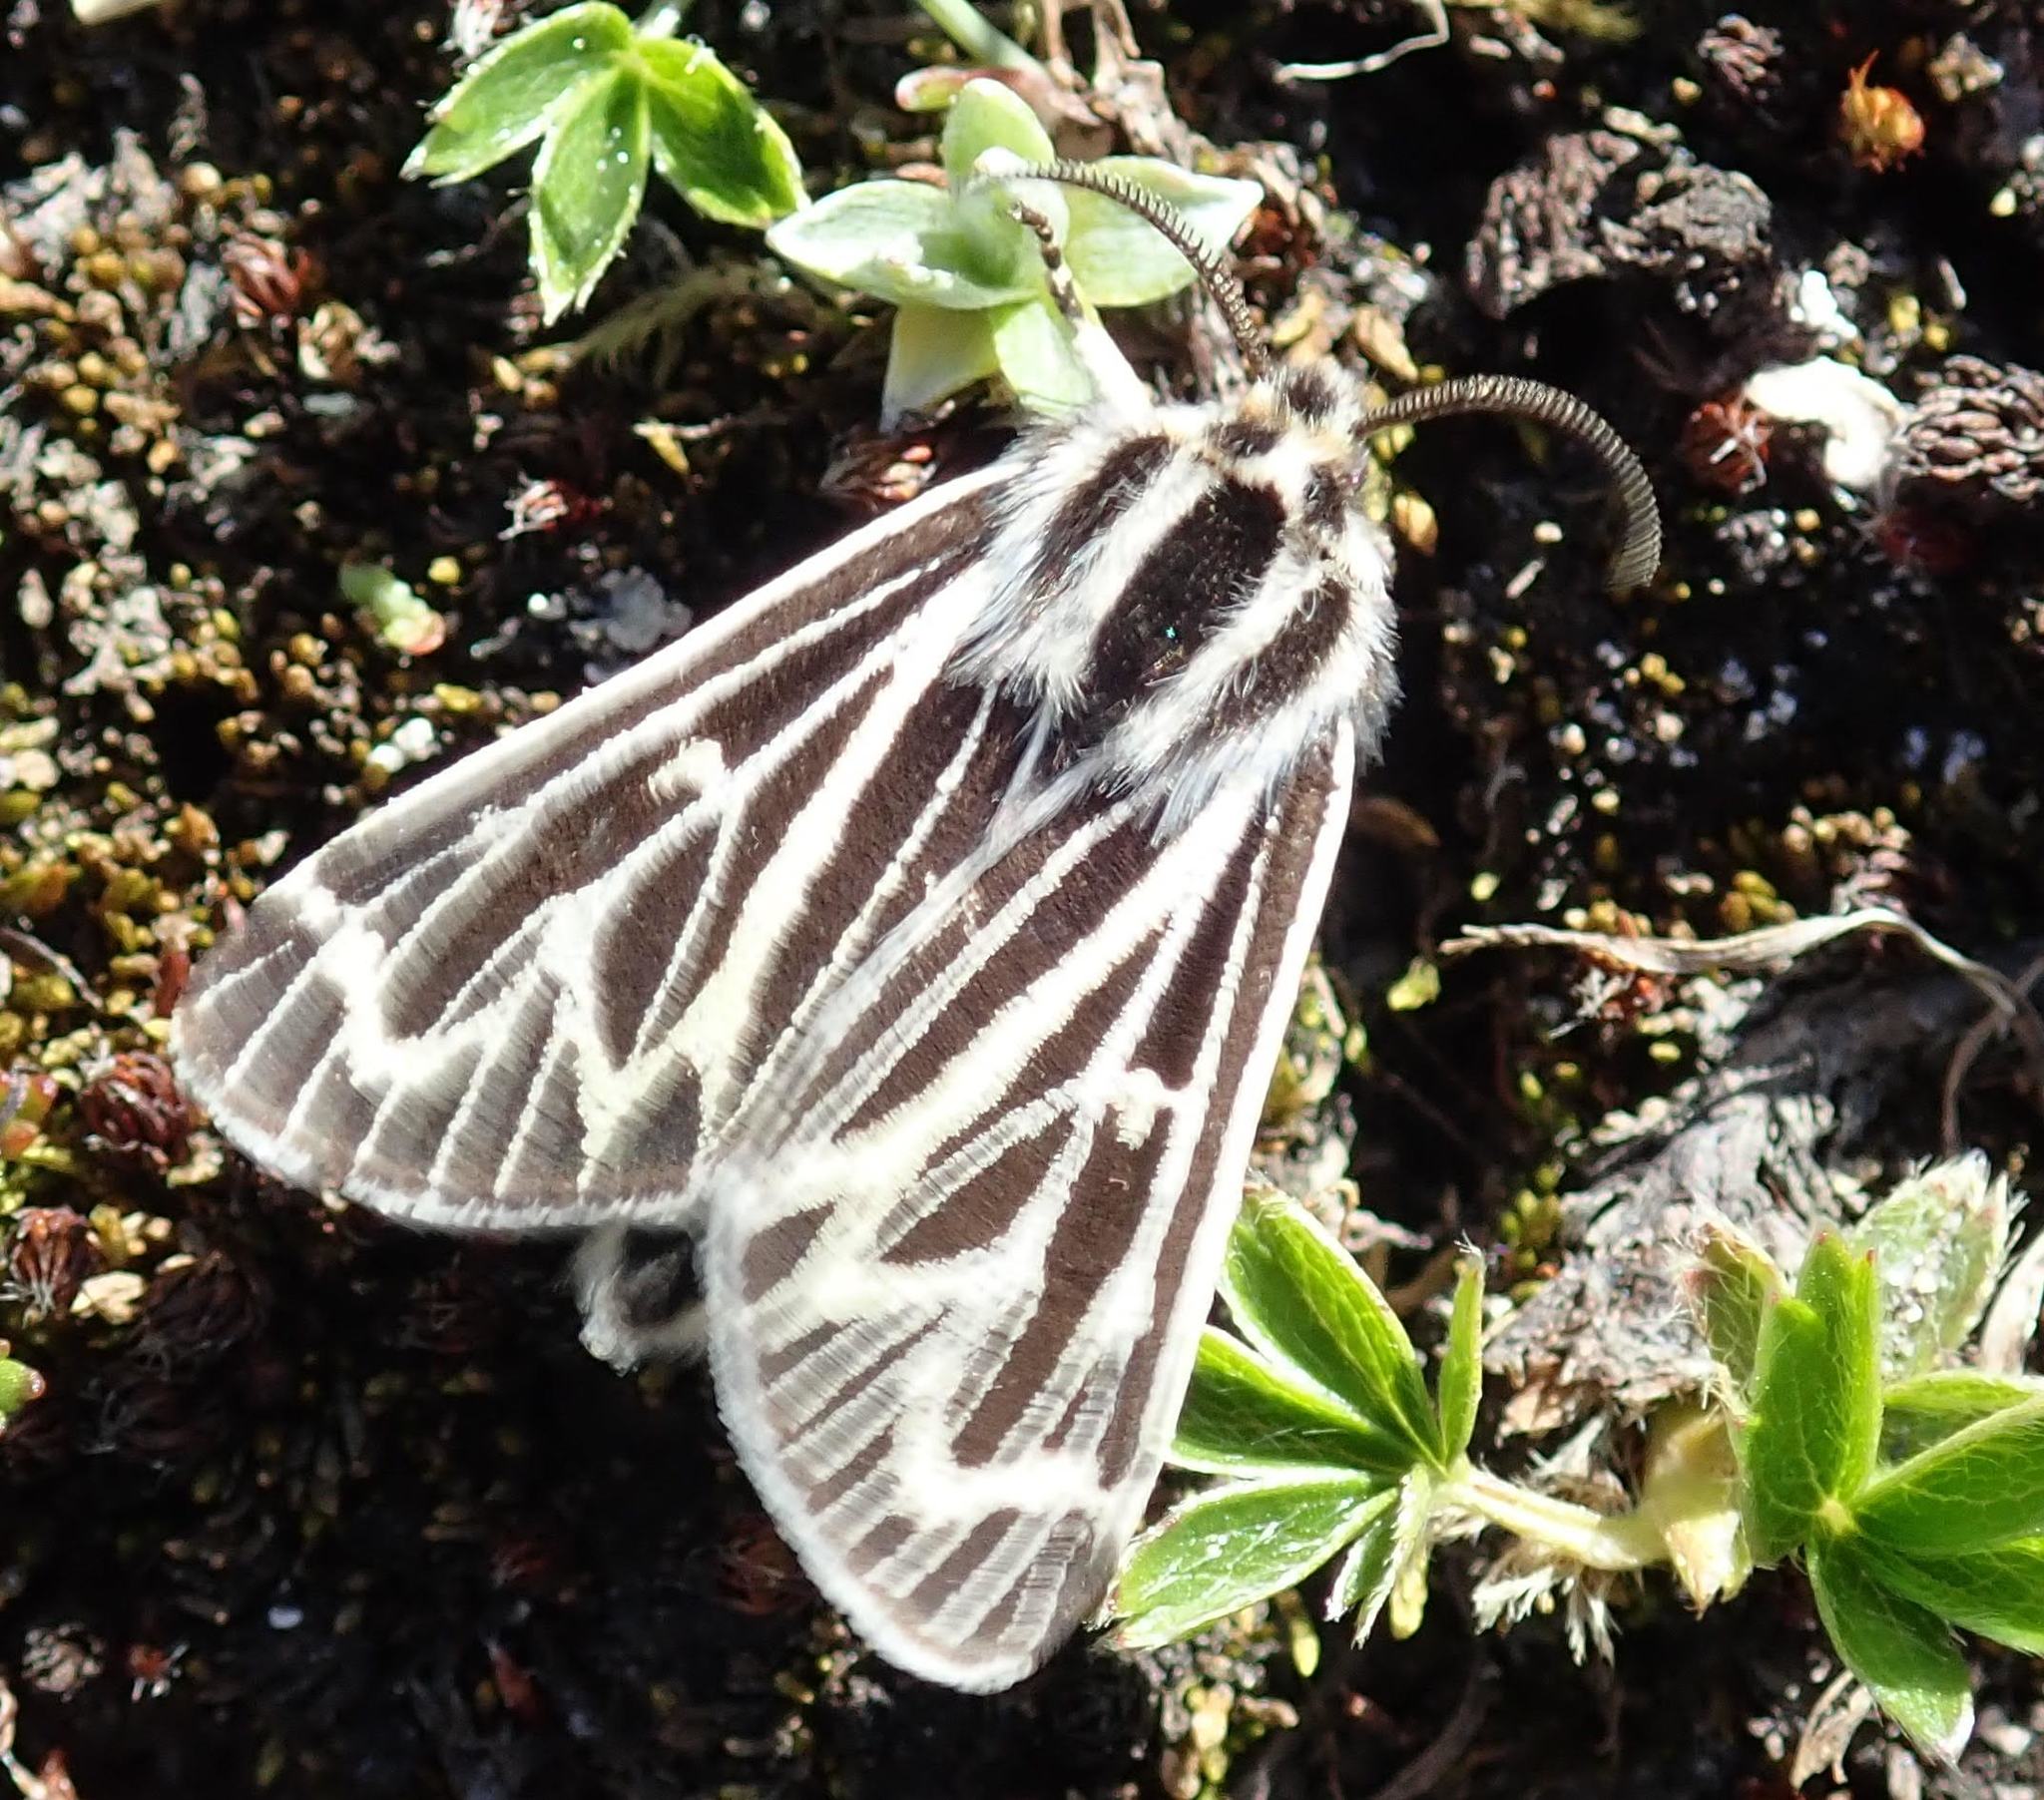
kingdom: Animalia
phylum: Arthropoda
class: Insecta
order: Lepidoptera
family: Erebidae
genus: Apantesis
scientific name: Apantesis quenseli
